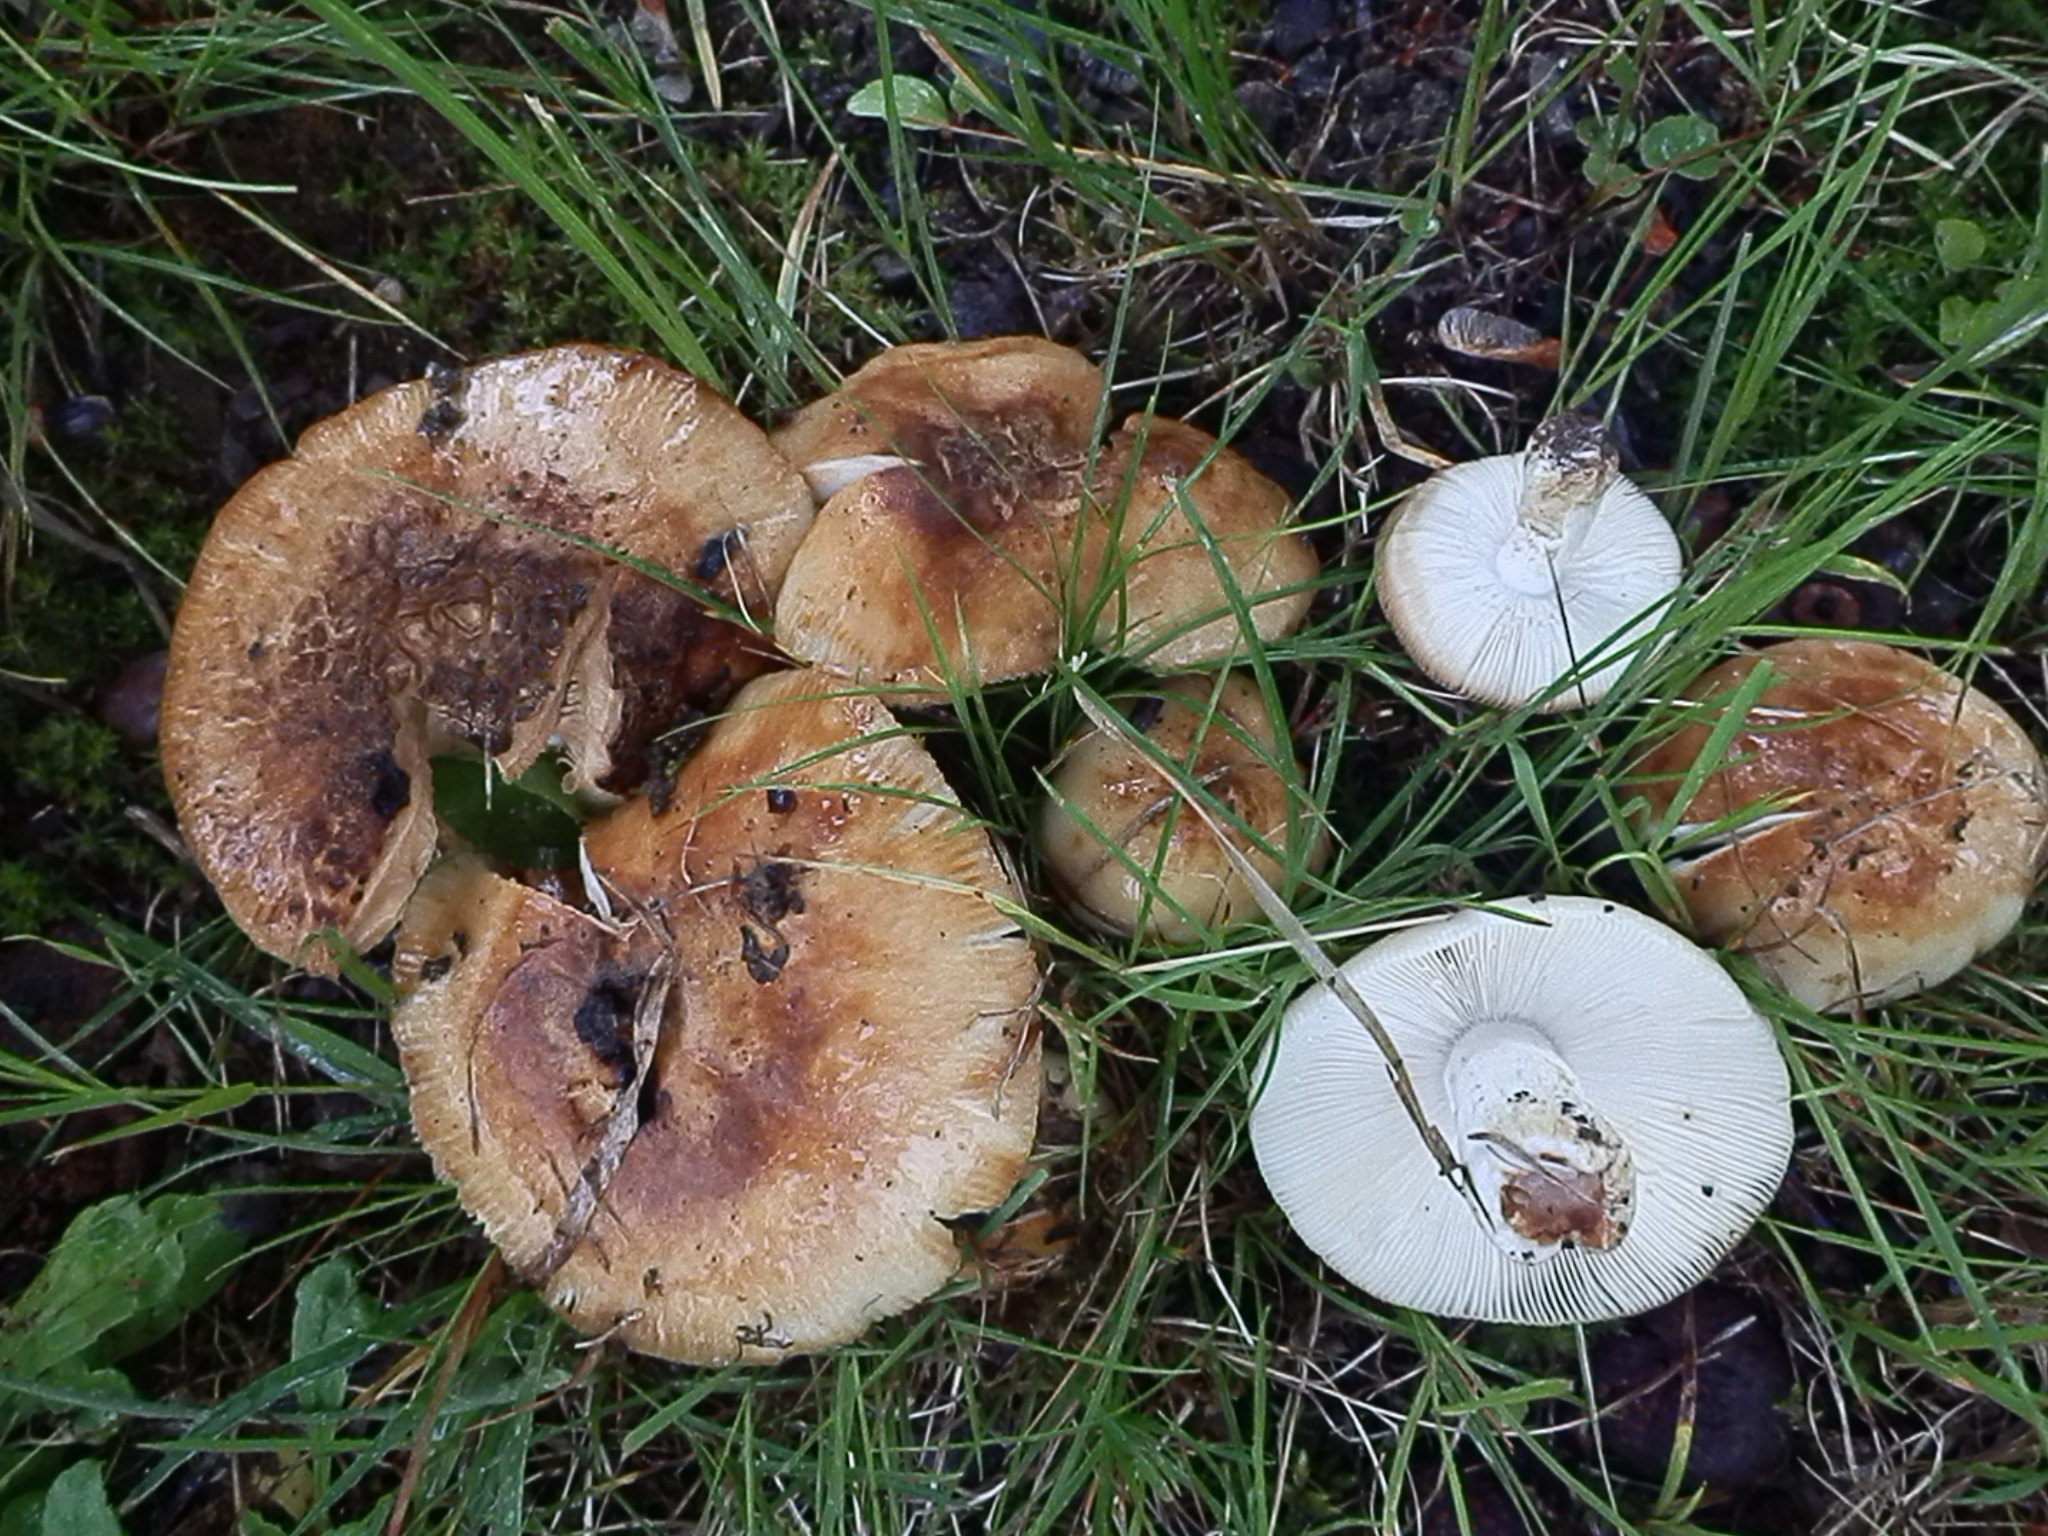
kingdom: Fungi
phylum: Basidiomycota
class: Agaricomycetes
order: Russulales
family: Russulaceae
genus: Russula
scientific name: Russula amoenolens
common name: Camembert brittlegill
